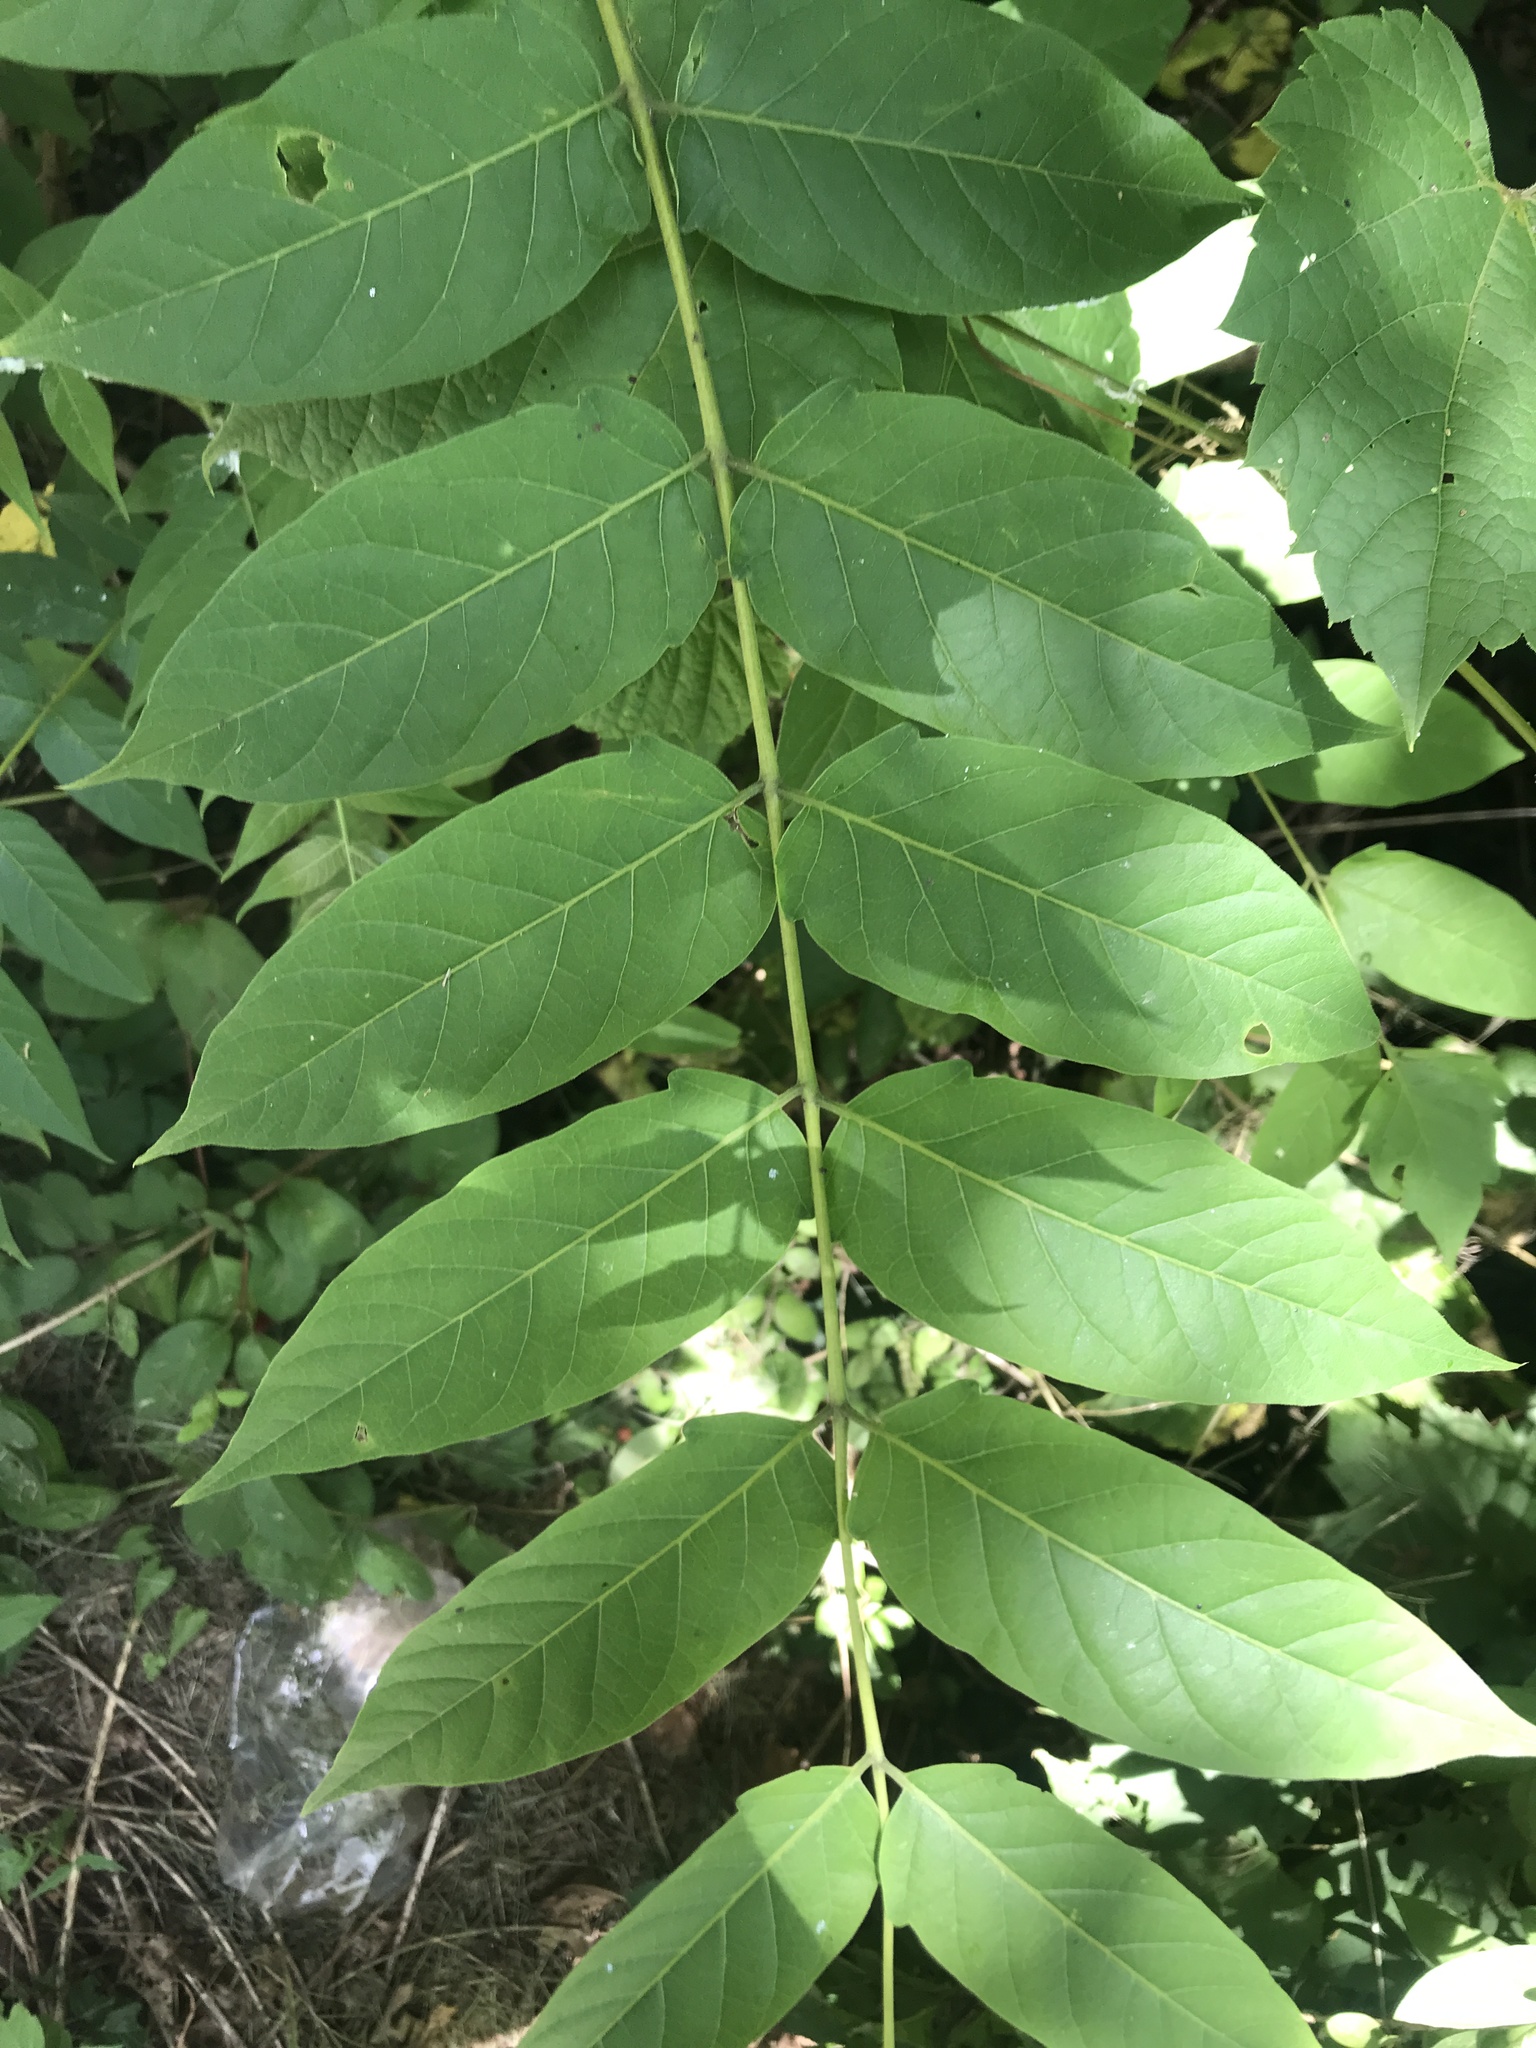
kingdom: Plantae
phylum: Tracheophyta
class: Magnoliopsida
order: Sapindales
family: Simaroubaceae
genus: Ailanthus
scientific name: Ailanthus altissima
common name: Tree-of-heaven
